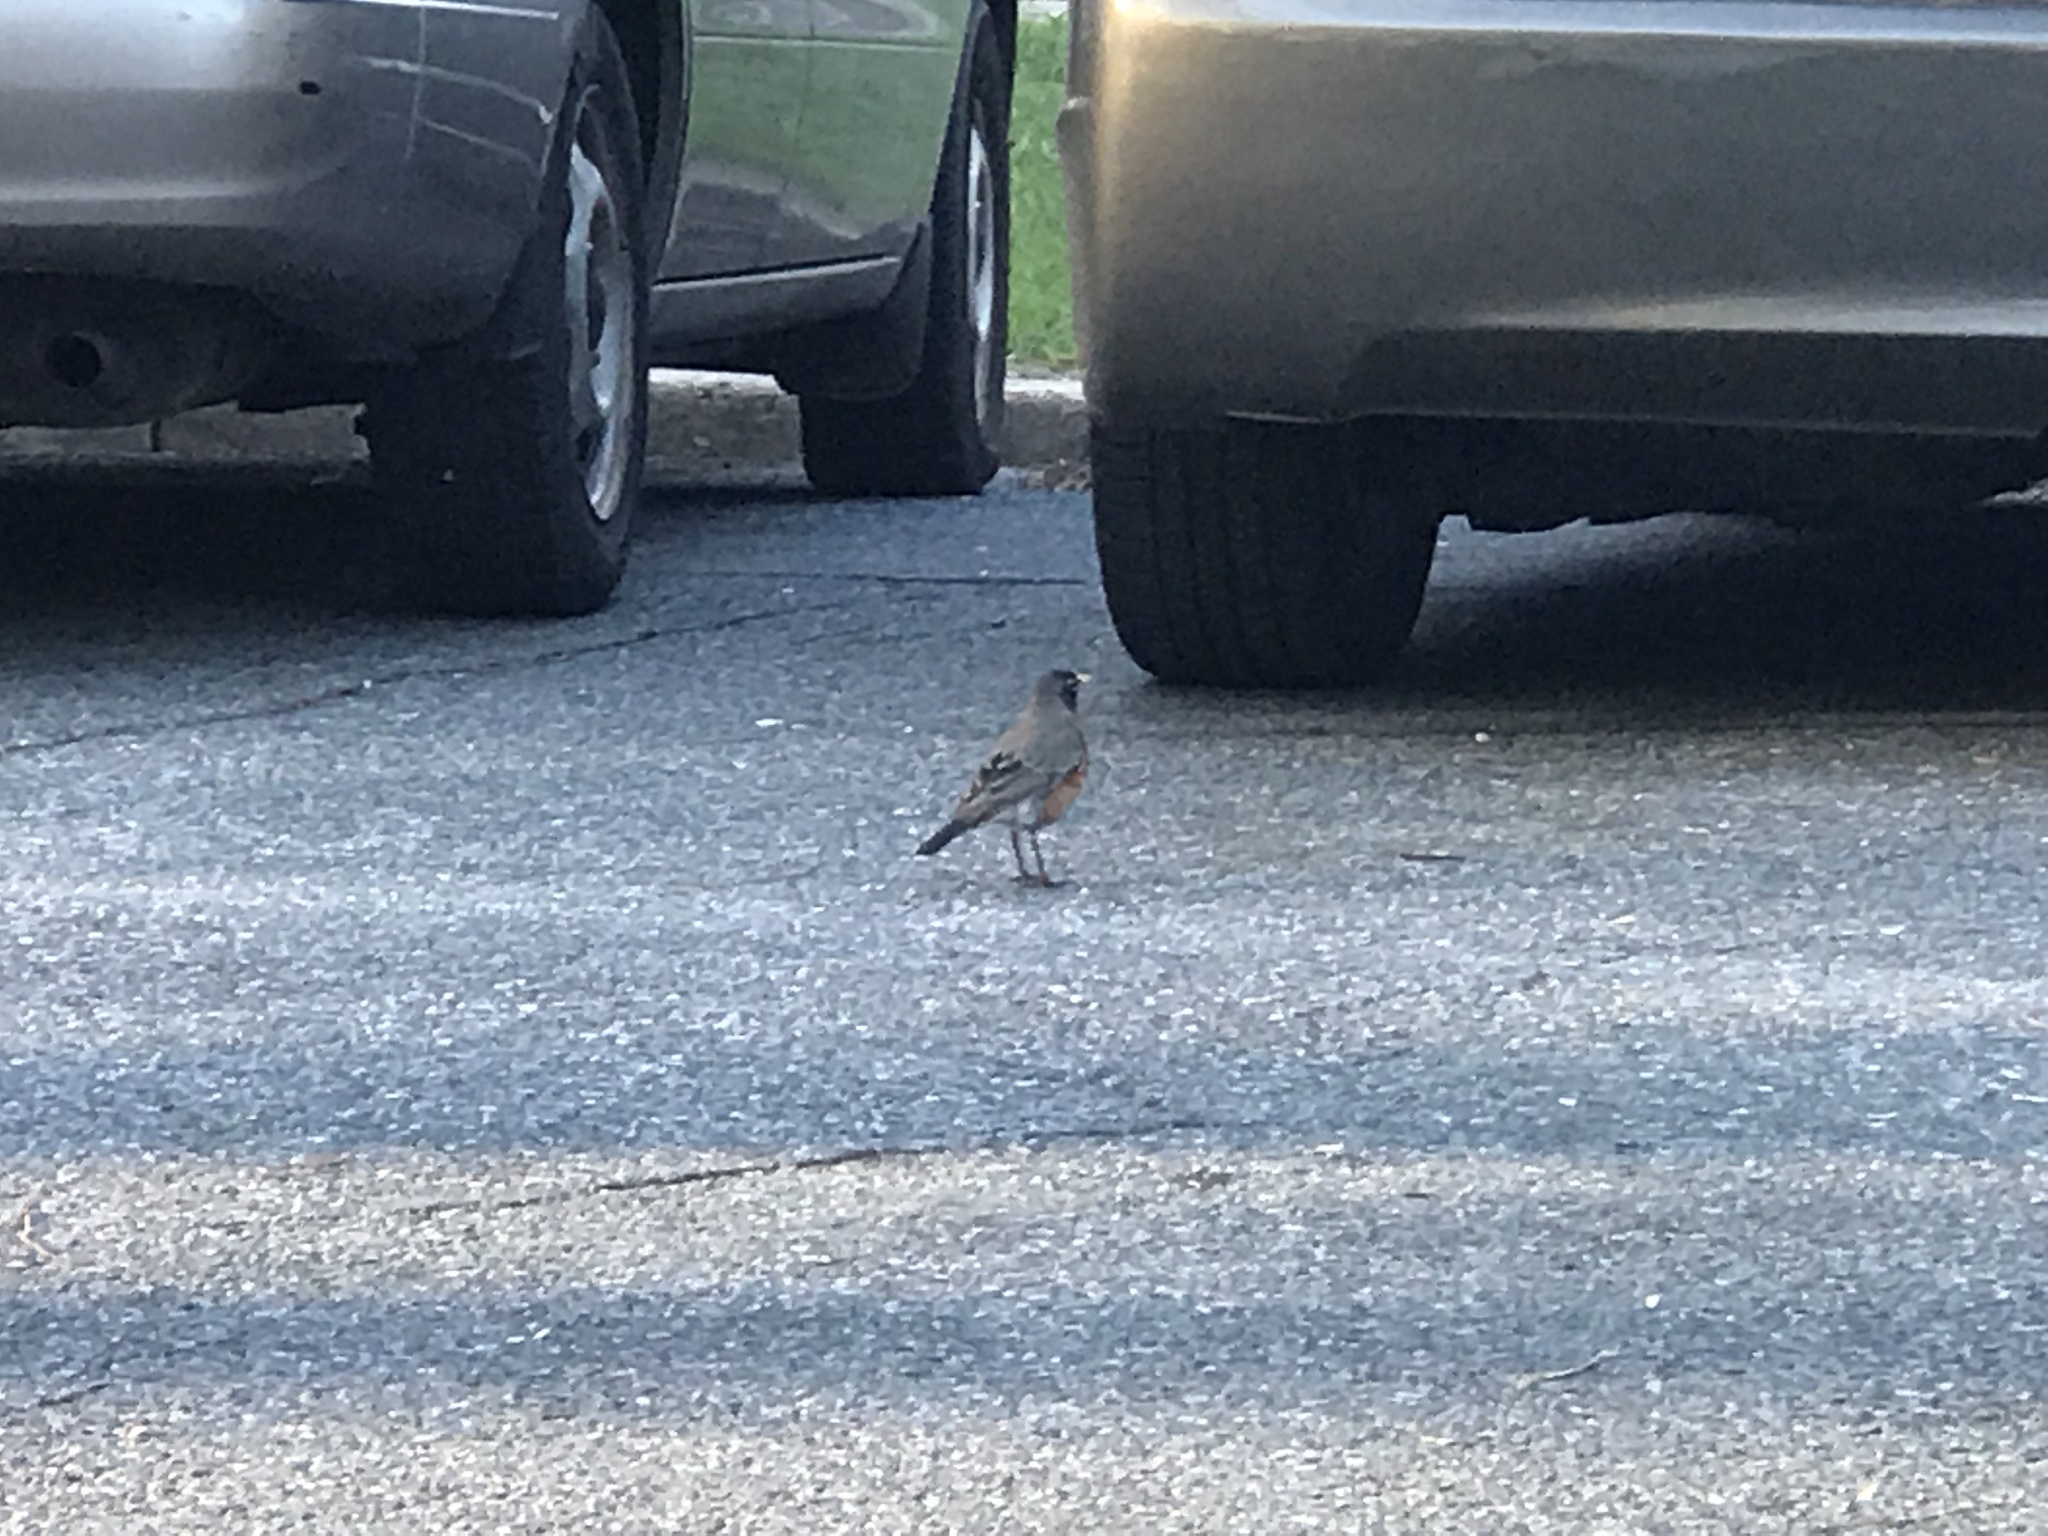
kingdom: Animalia
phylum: Chordata
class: Aves
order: Passeriformes
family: Turdidae
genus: Turdus
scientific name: Turdus migratorius
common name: American robin
